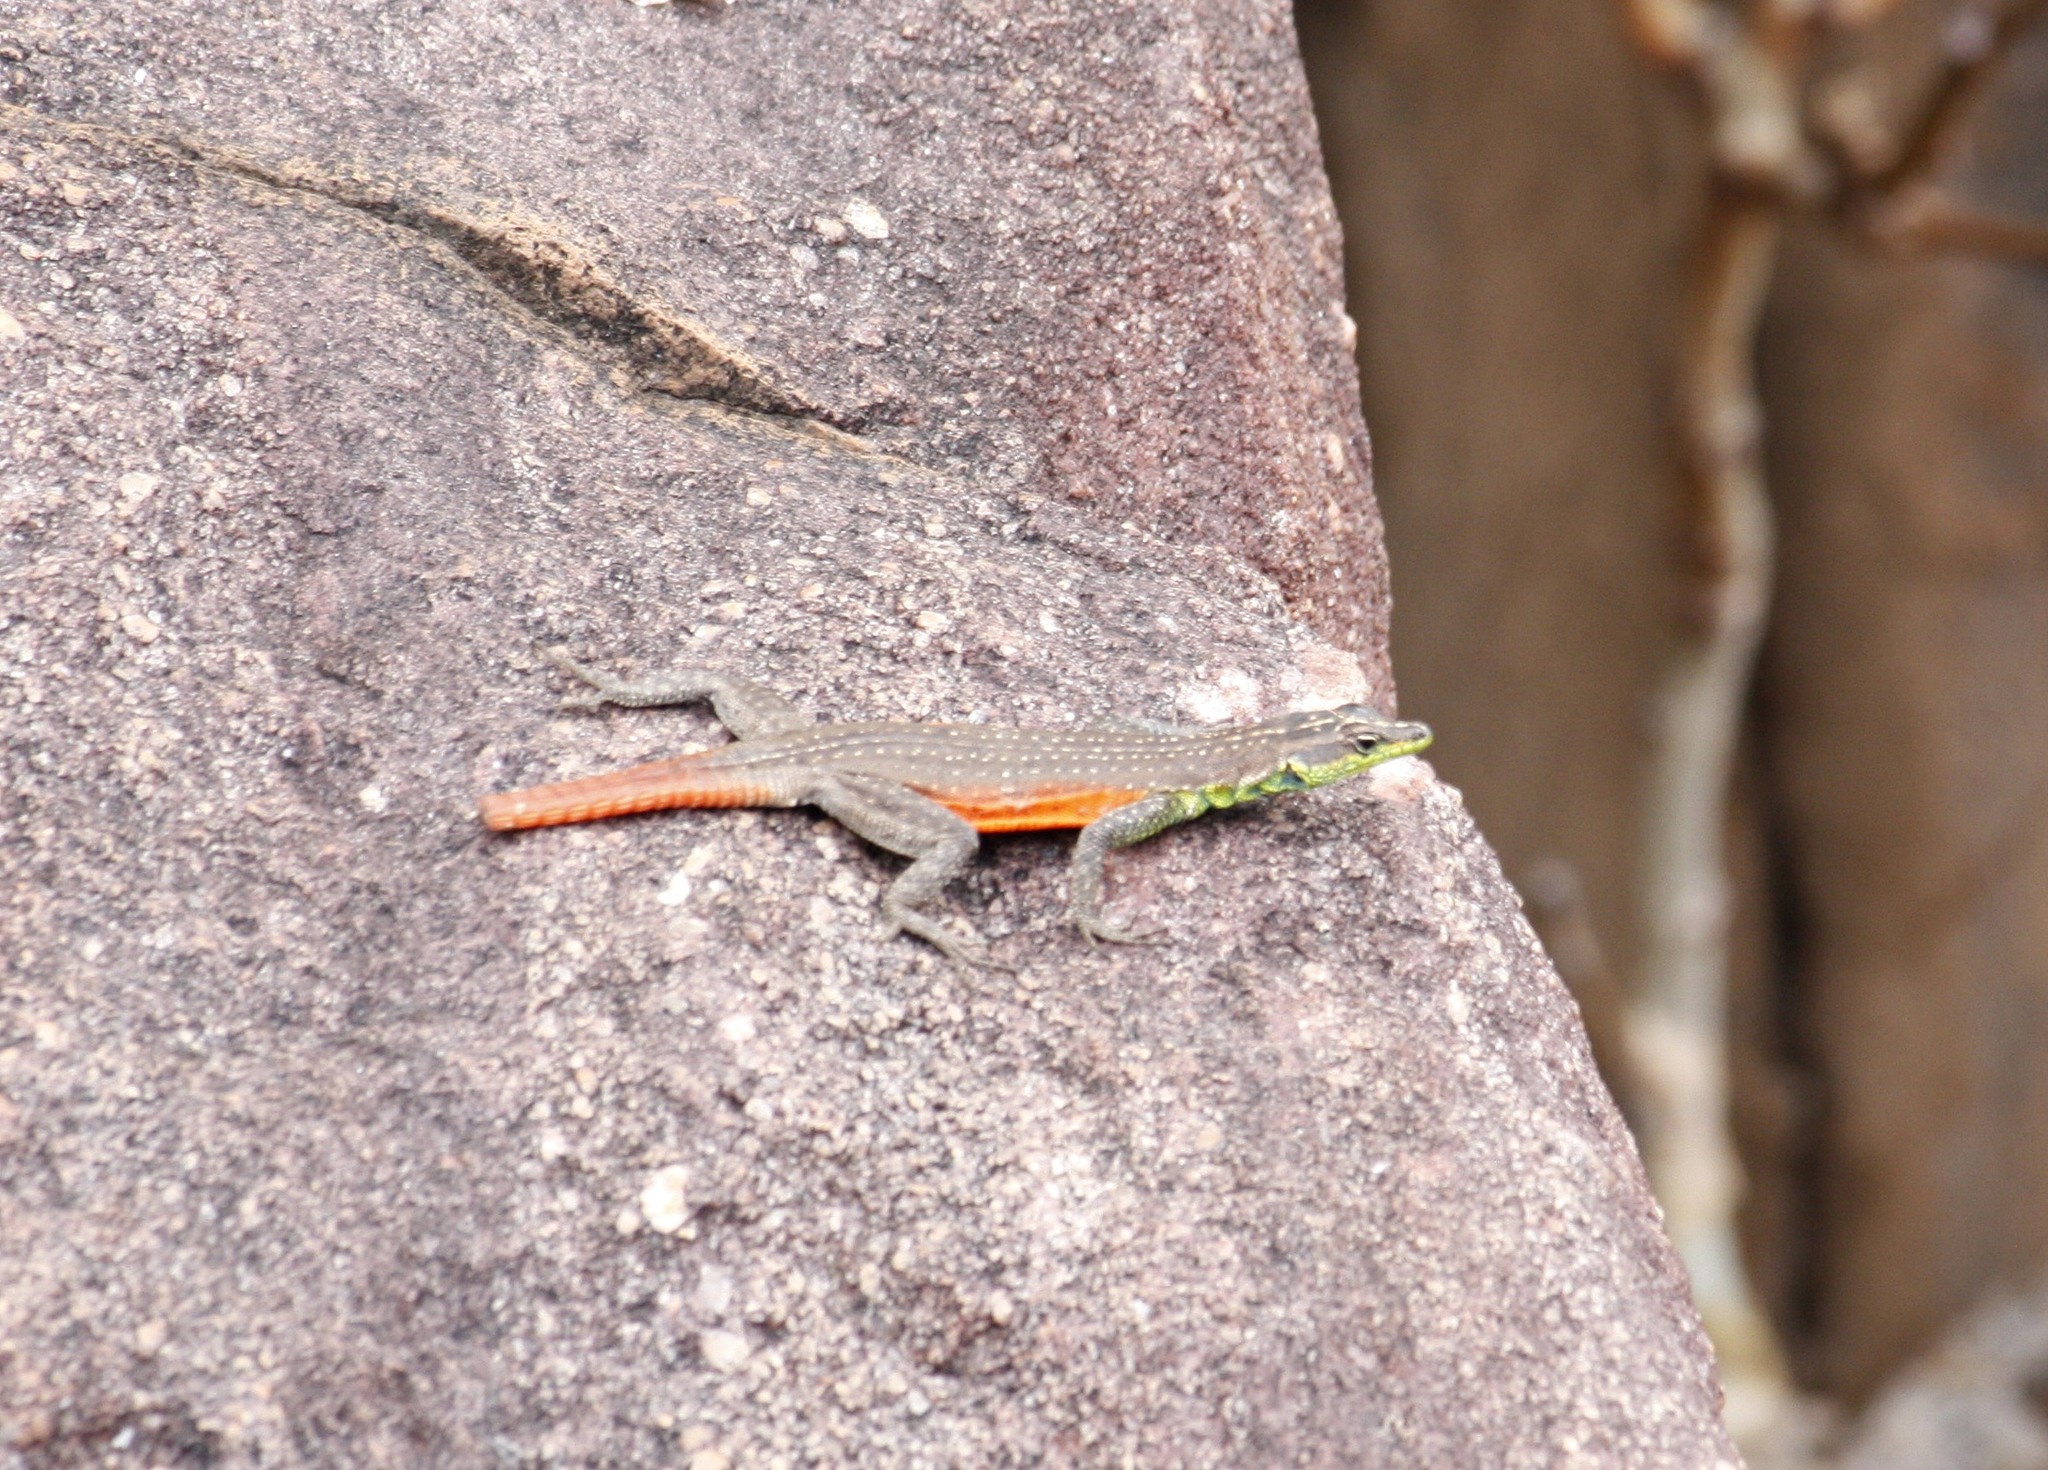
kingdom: Animalia
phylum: Chordata
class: Squamata
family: Cordylidae
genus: Platysaurus
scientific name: Platysaurus minor
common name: Waterberg flat lizard
